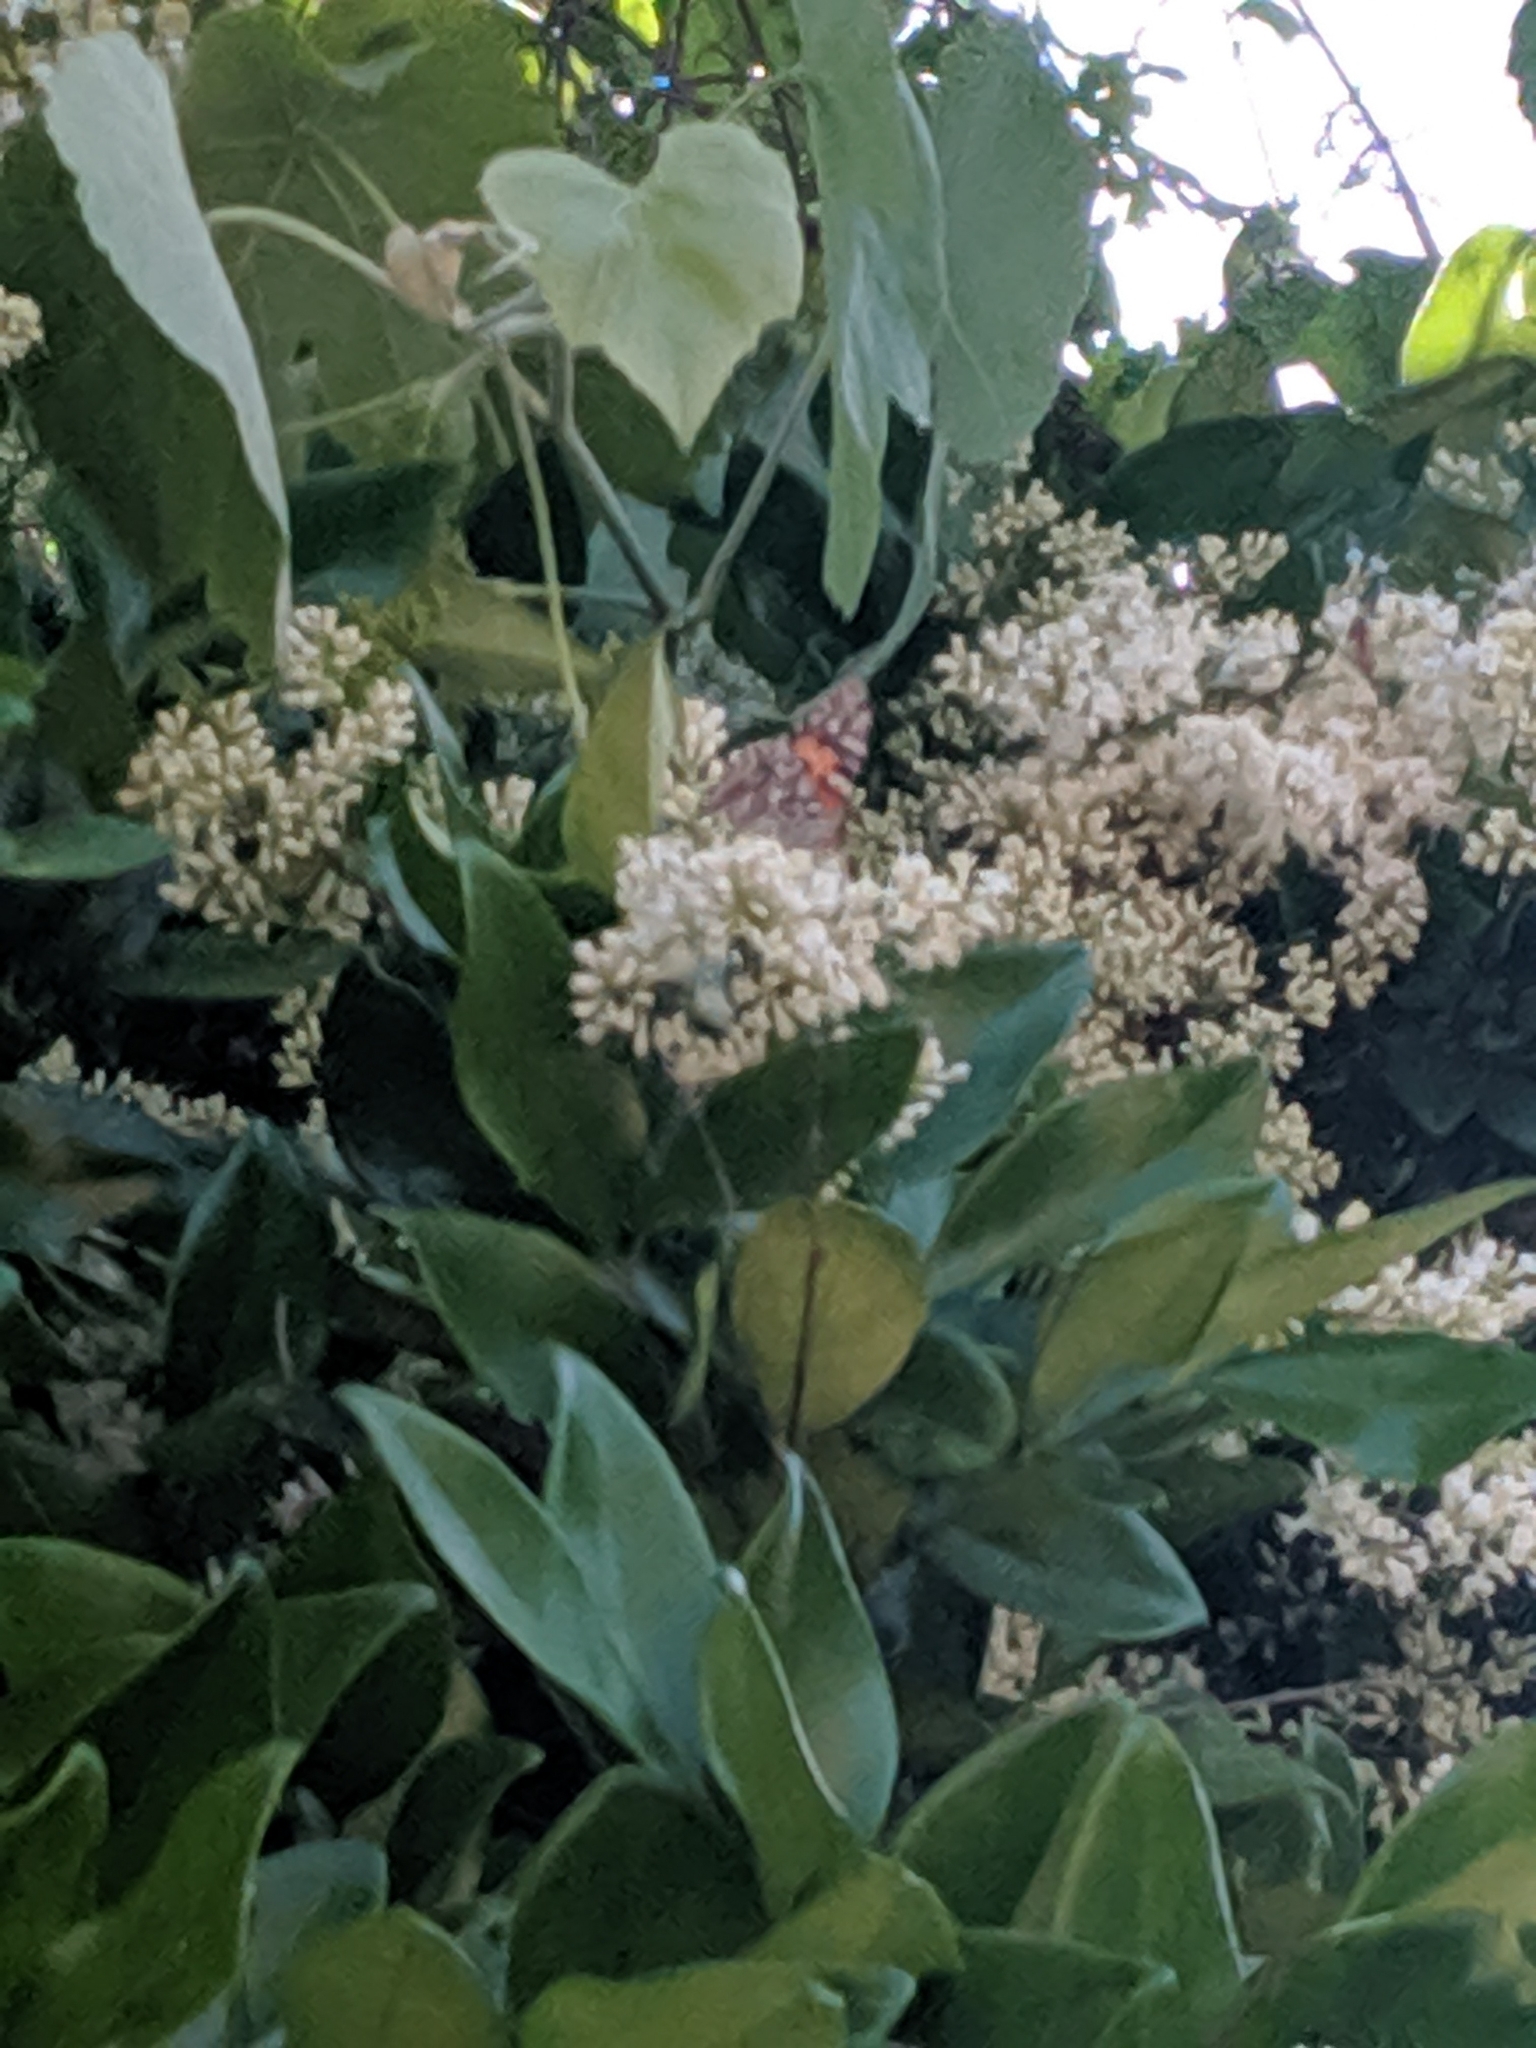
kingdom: Animalia
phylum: Arthropoda
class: Insecta
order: Lepidoptera
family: Nymphalidae
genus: Vanessa
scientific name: Vanessa cardui
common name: Painted lady
